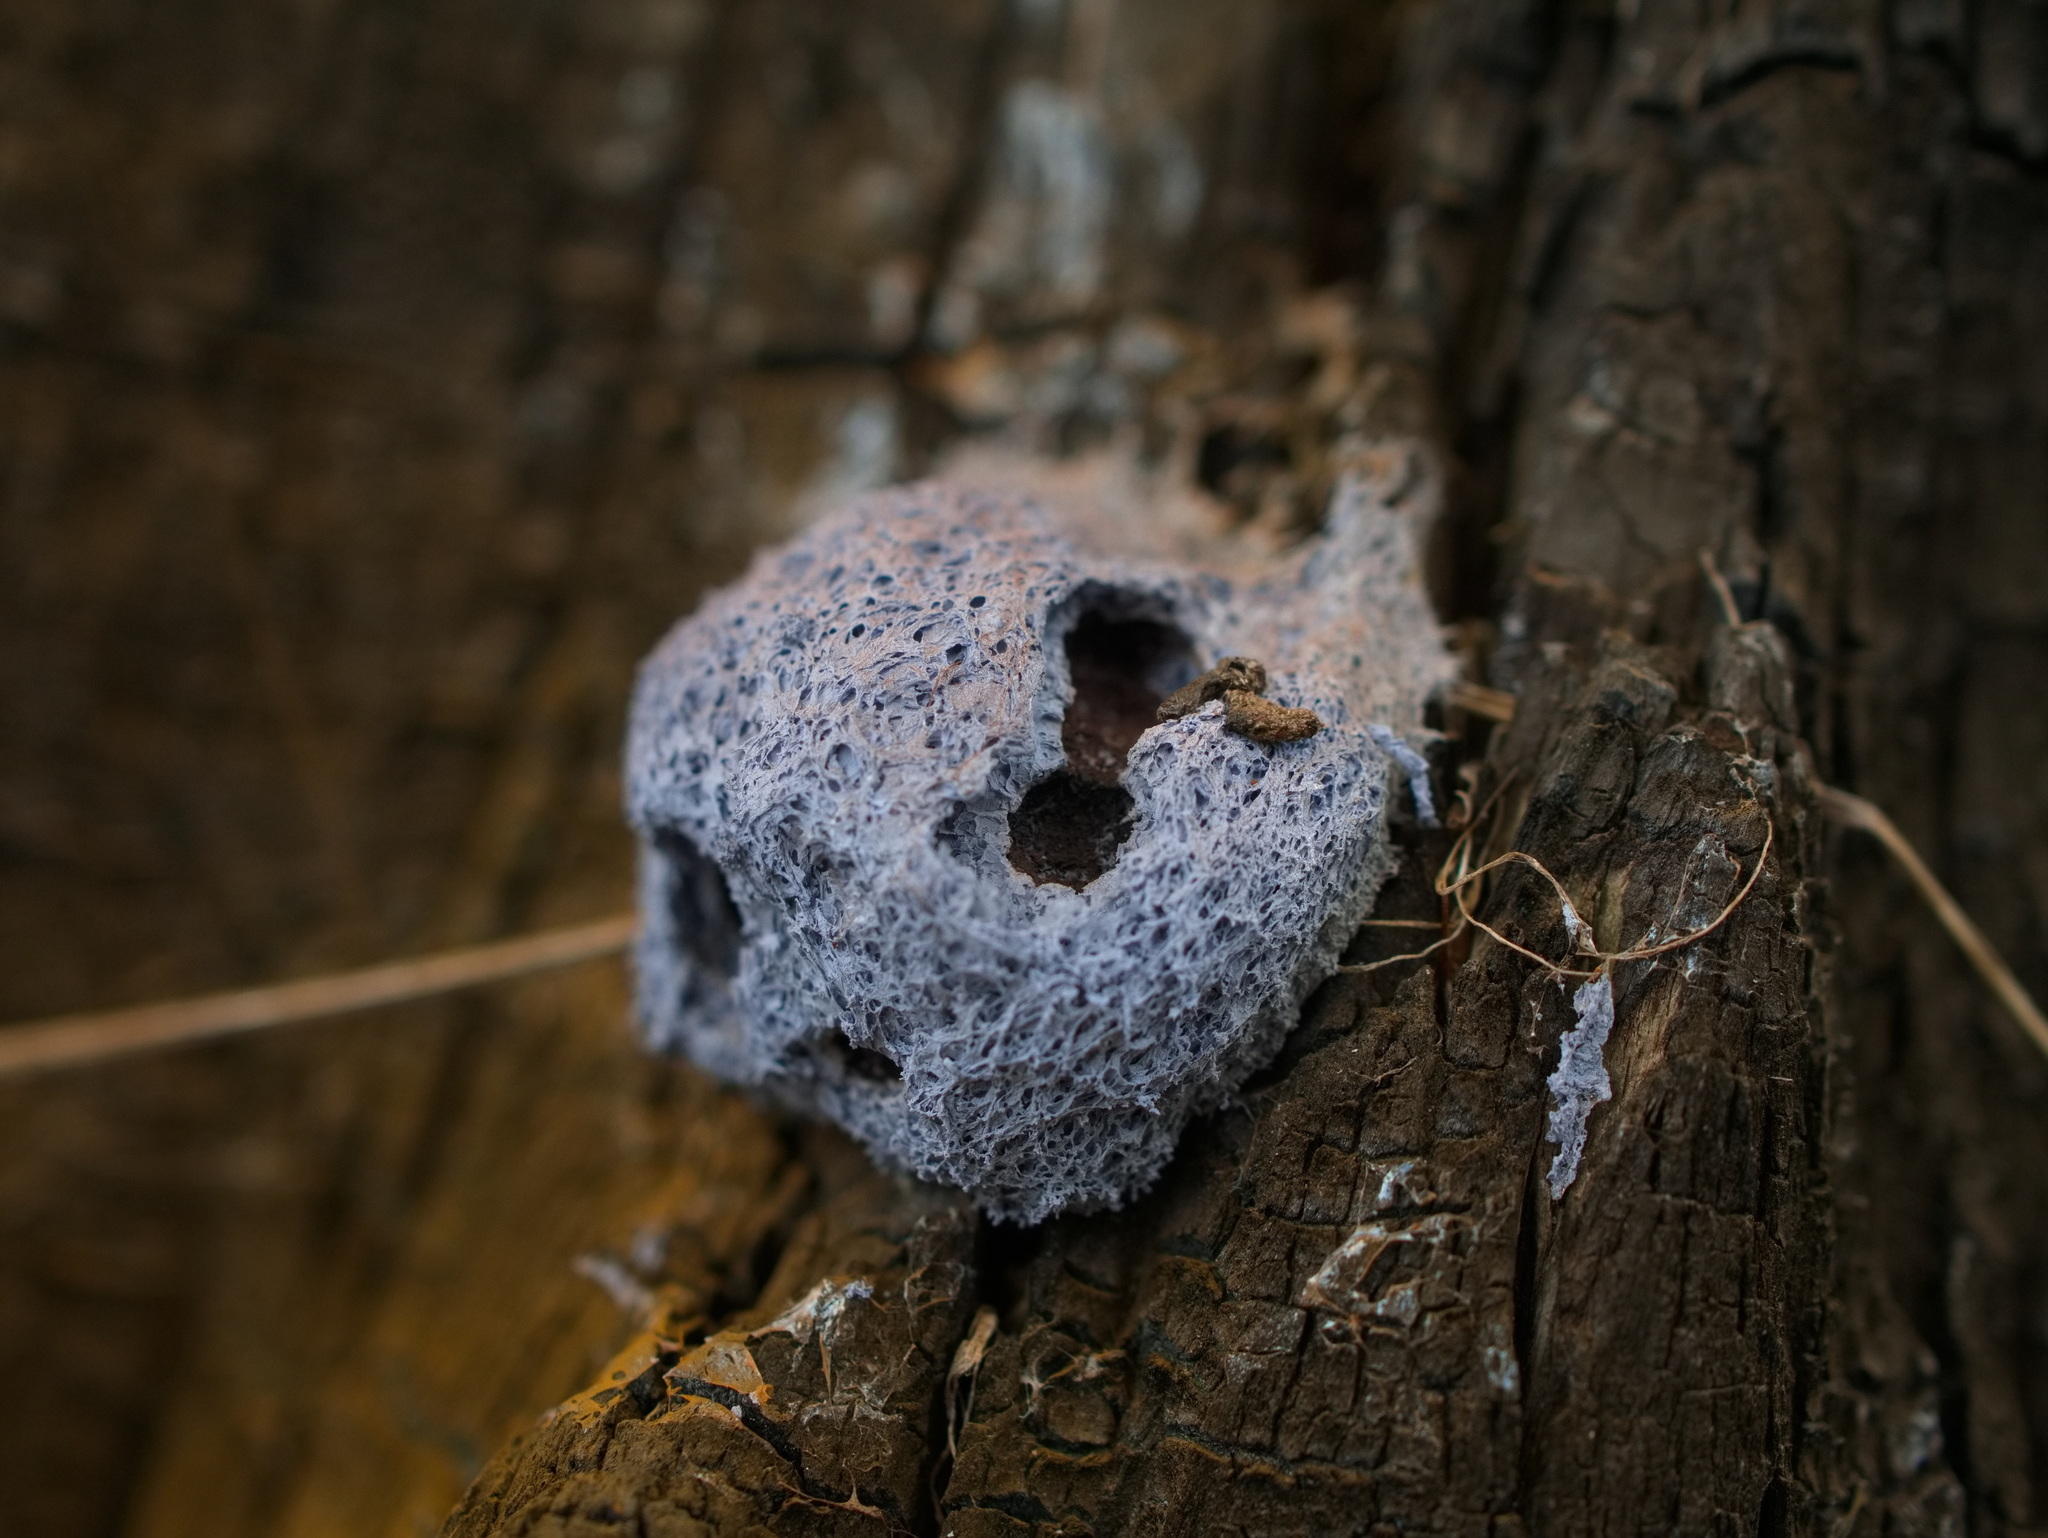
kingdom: Protozoa
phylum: Mycetozoa
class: Myxomycetes
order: Physarales
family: Physaraceae
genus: Fuligo
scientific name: Fuligo septica
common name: Dog vomit slime mold
